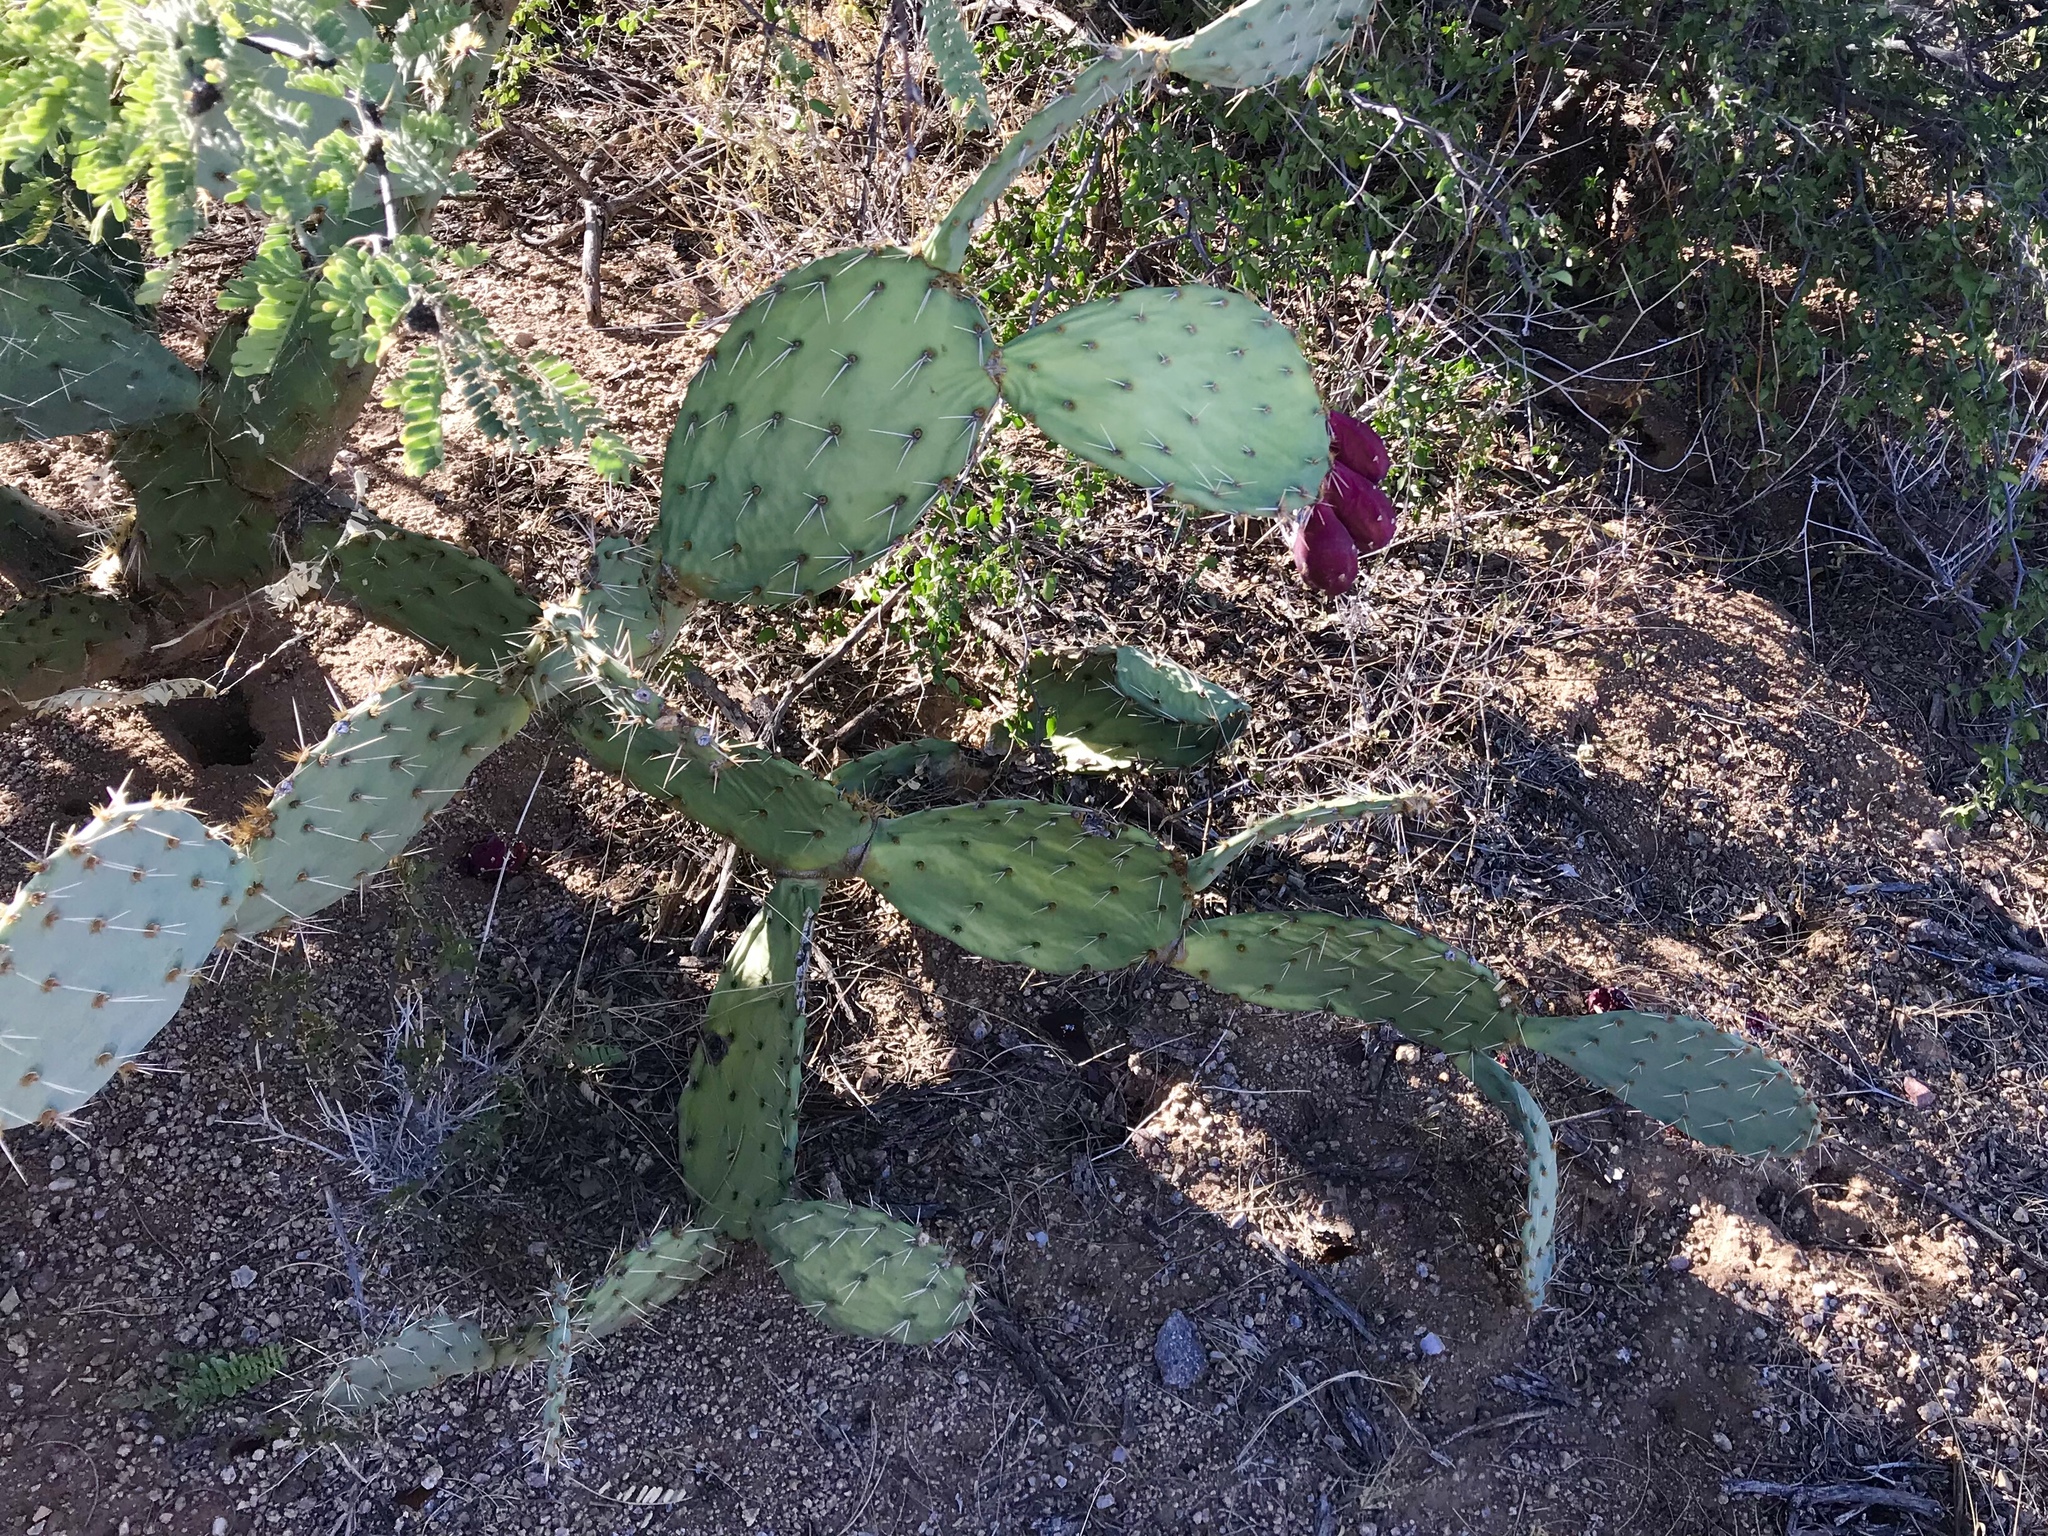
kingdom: Plantae
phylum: Tracheophyta
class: Magnoliopsida
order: Caryophyllales
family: Cactaceae
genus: Opuntia
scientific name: Opuntia engelmannii
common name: Cactus-apple
